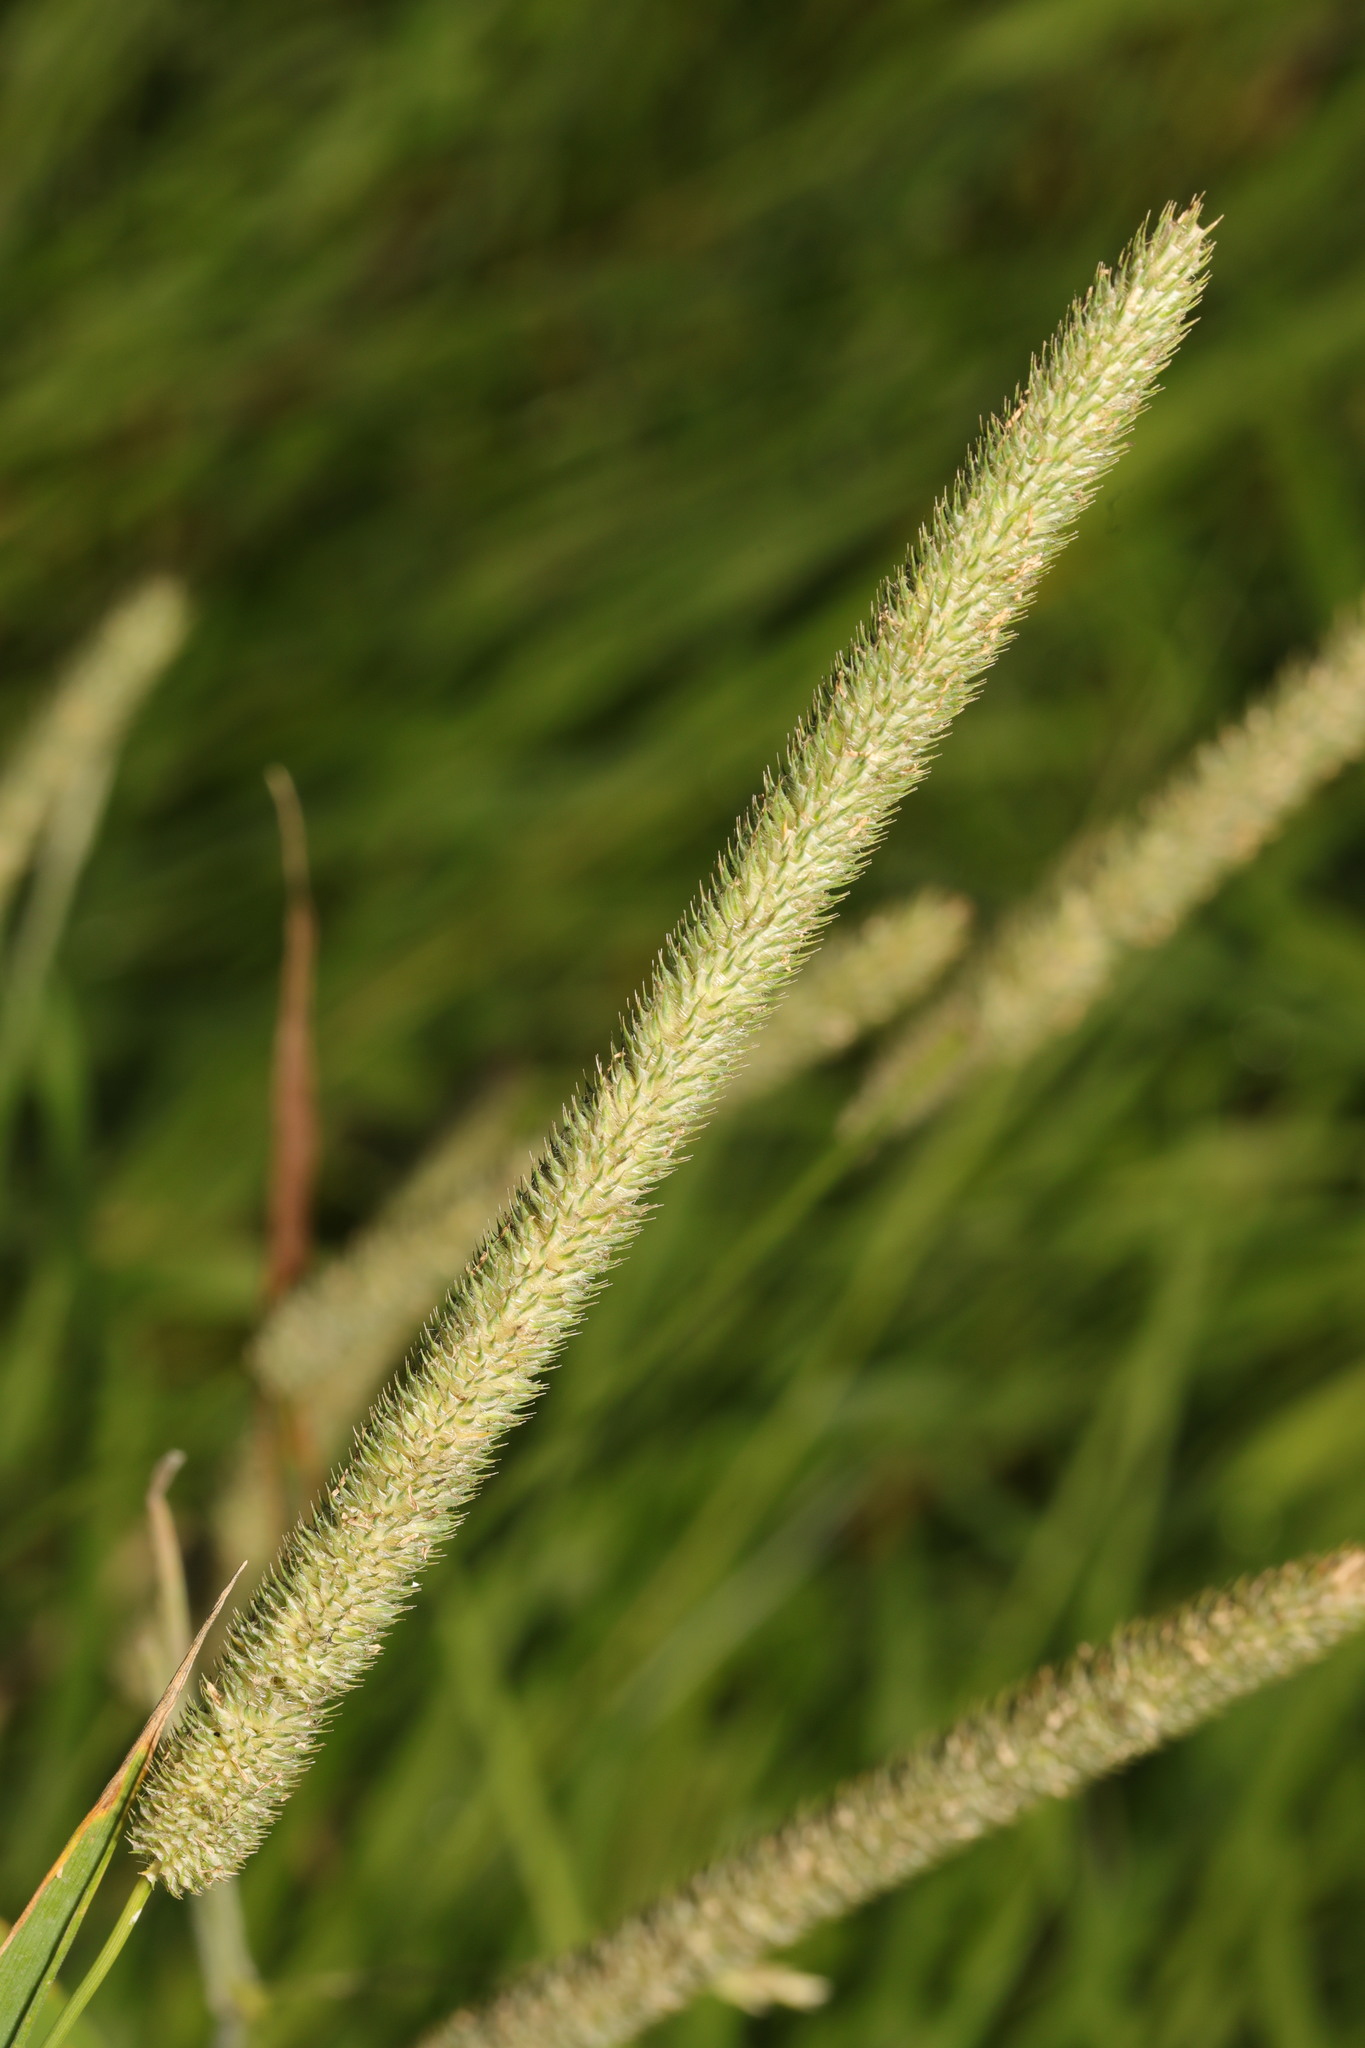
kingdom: Plantae
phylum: Tracheophyta
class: Liliopsida
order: Poales
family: Poaceae
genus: Phleum
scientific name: Phleum pratense
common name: Timothy grass
